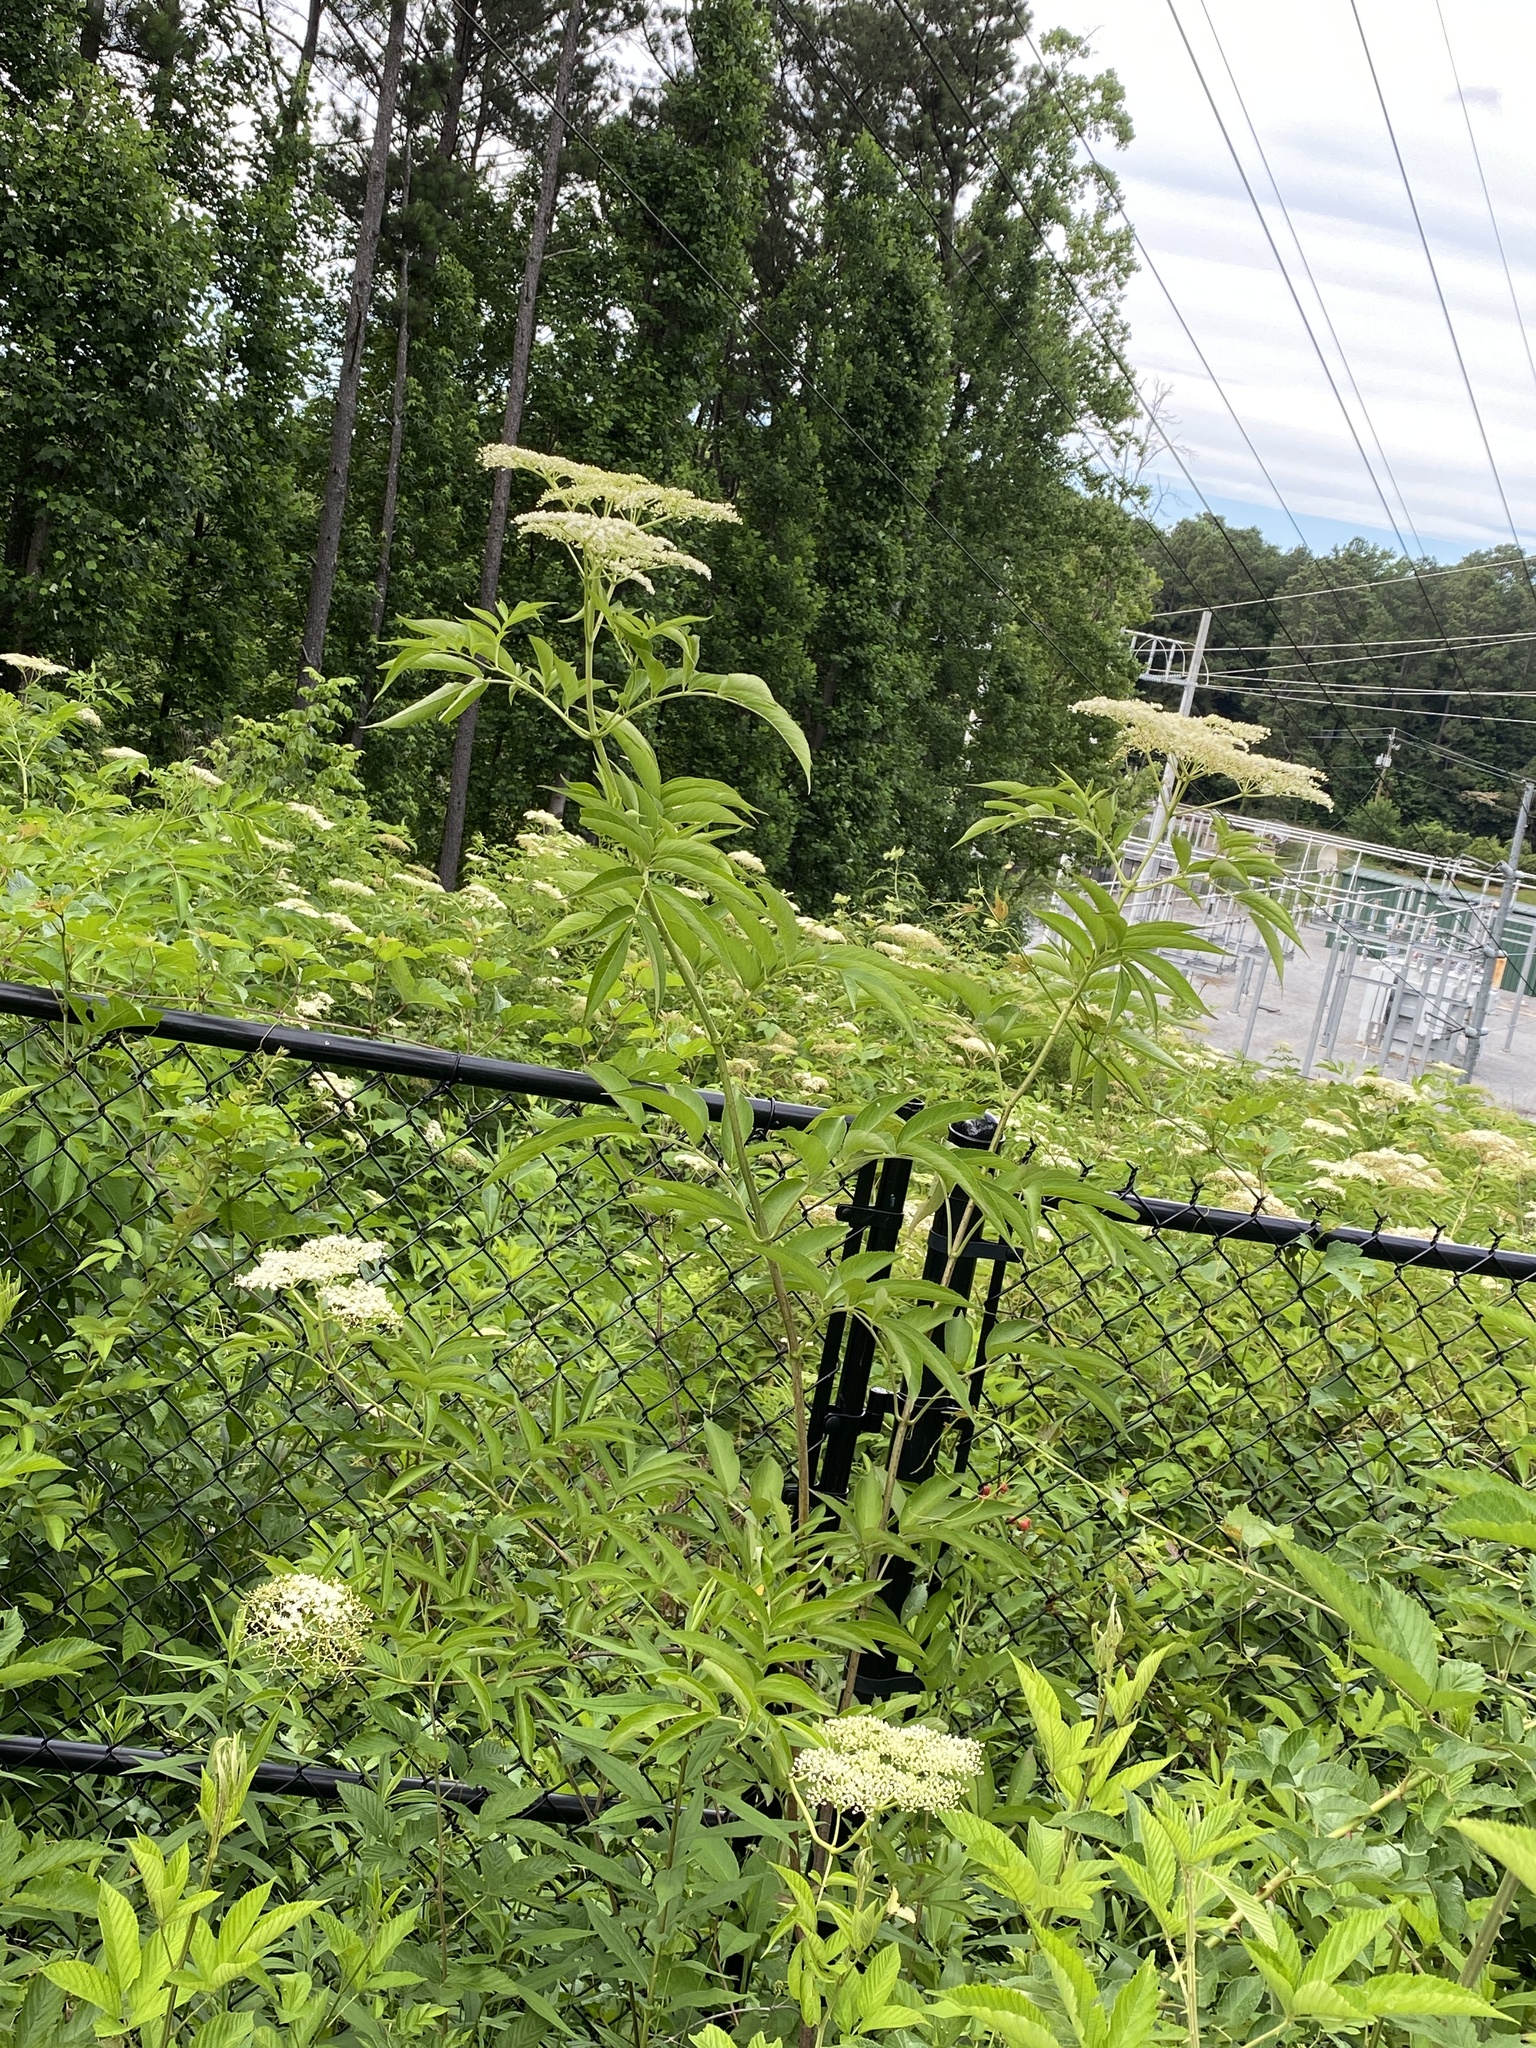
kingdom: Plantae
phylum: Tracheophyta
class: Magnoliopsida
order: Dipsacales
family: Viburnaceae
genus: Sambucus
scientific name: Sambucus canadensis
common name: American elder
